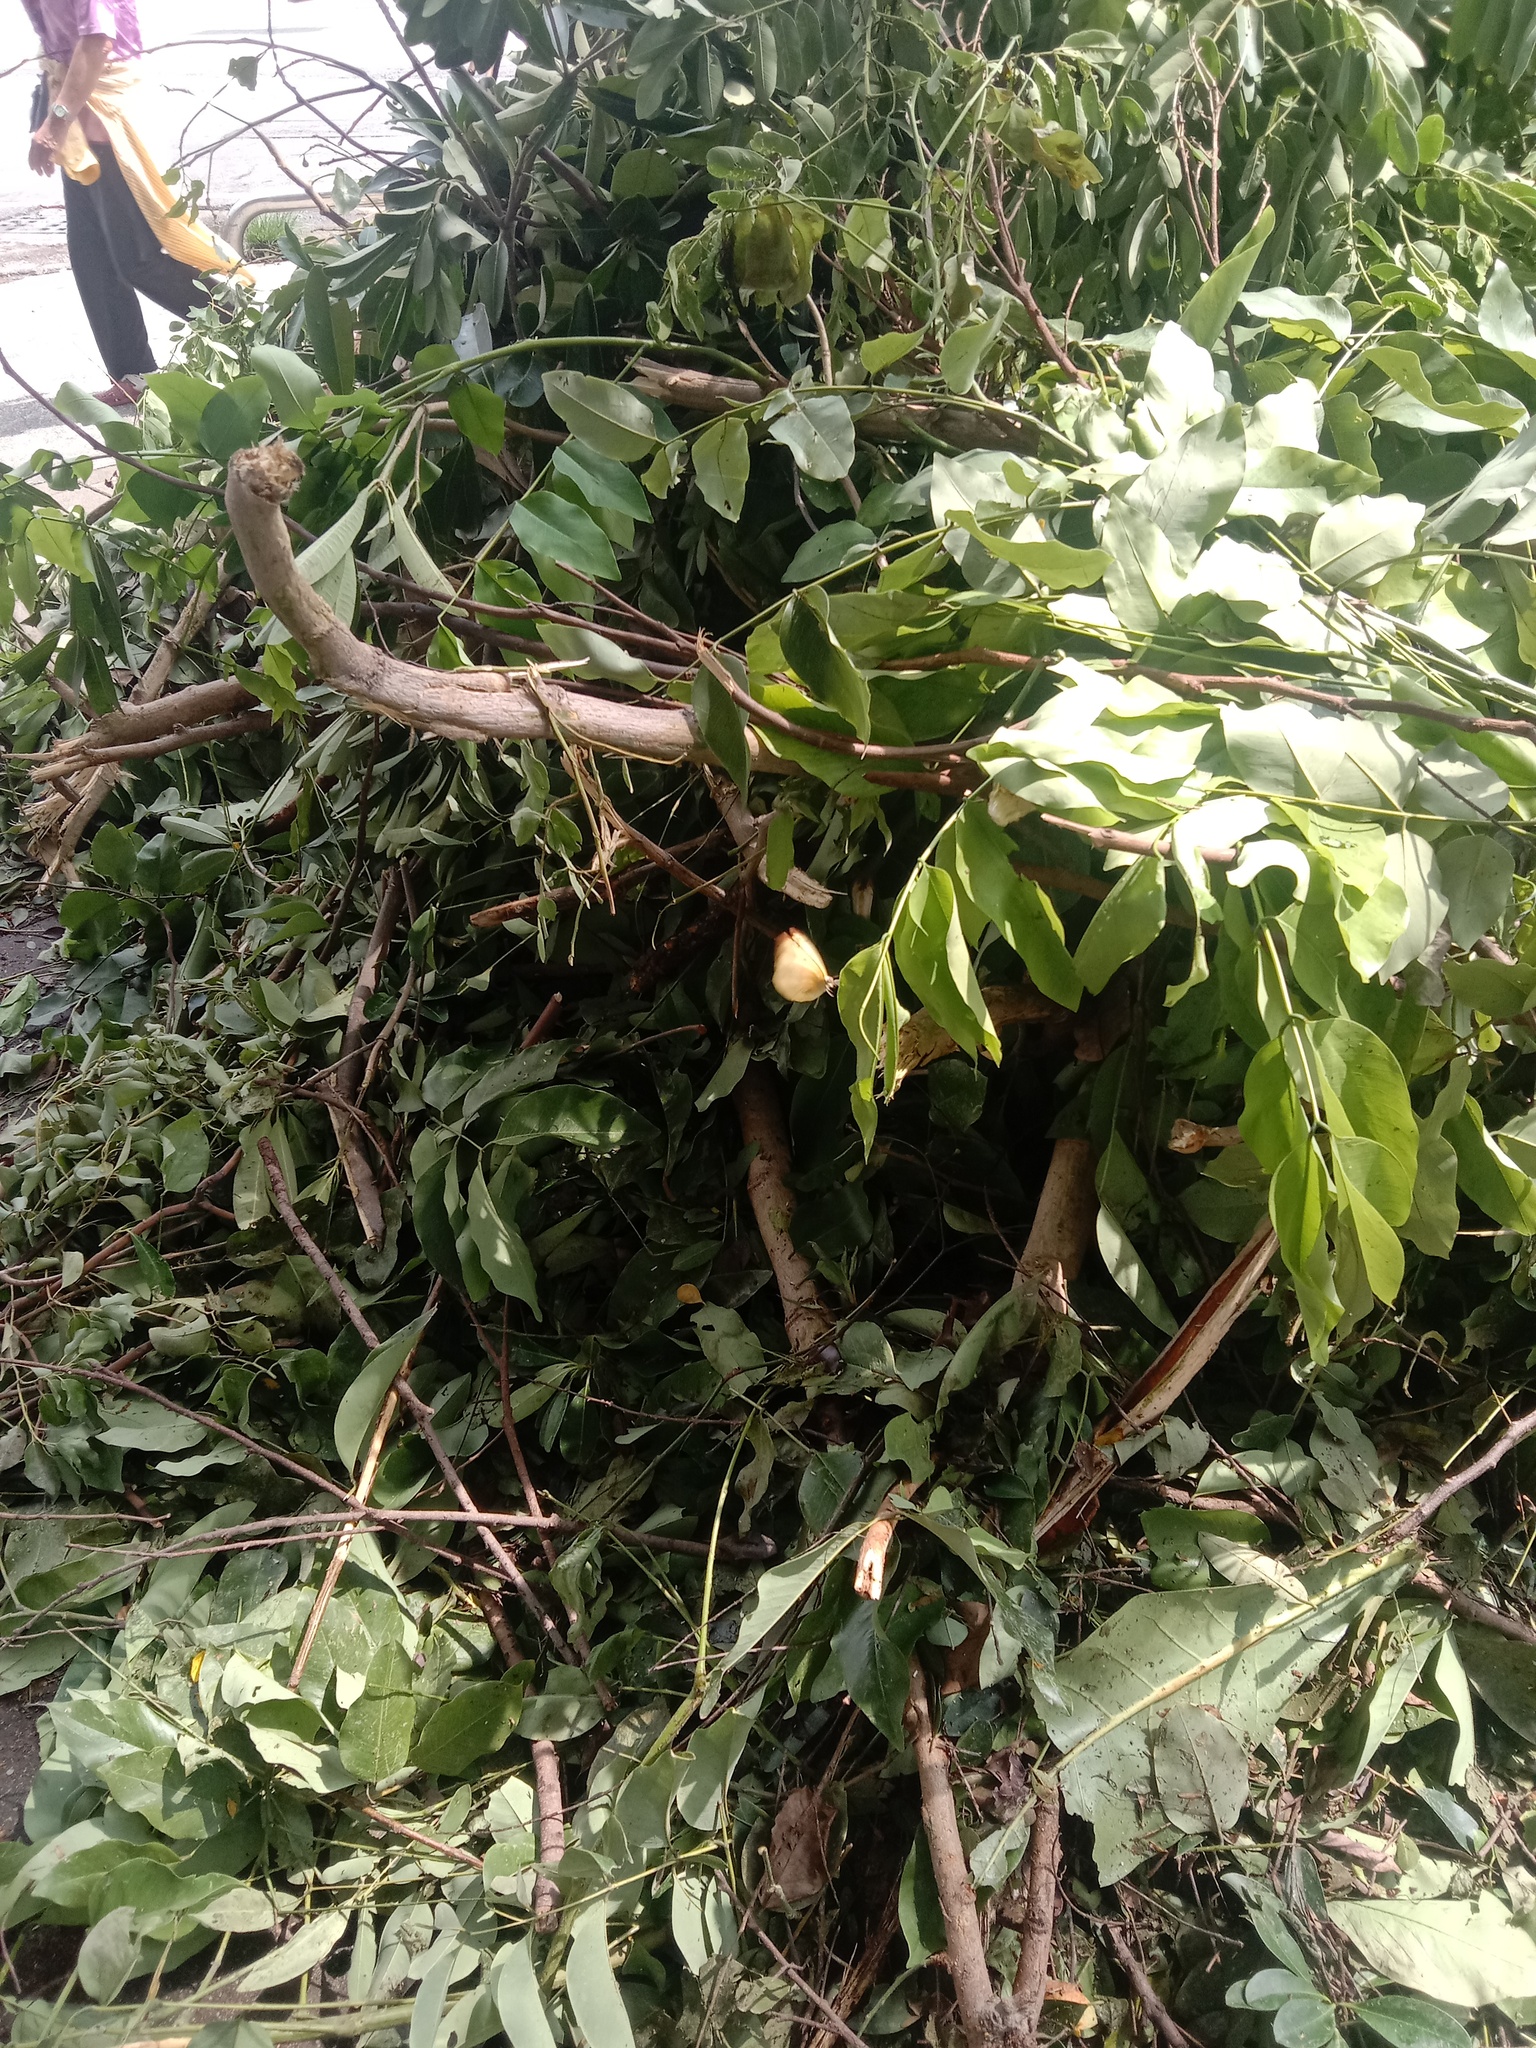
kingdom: Animalia
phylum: Arthropoda
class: Insecta
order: Lepidoptera
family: Pieridae
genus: Catopsilia
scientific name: Catopsilia pomona
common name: Common emigrant
